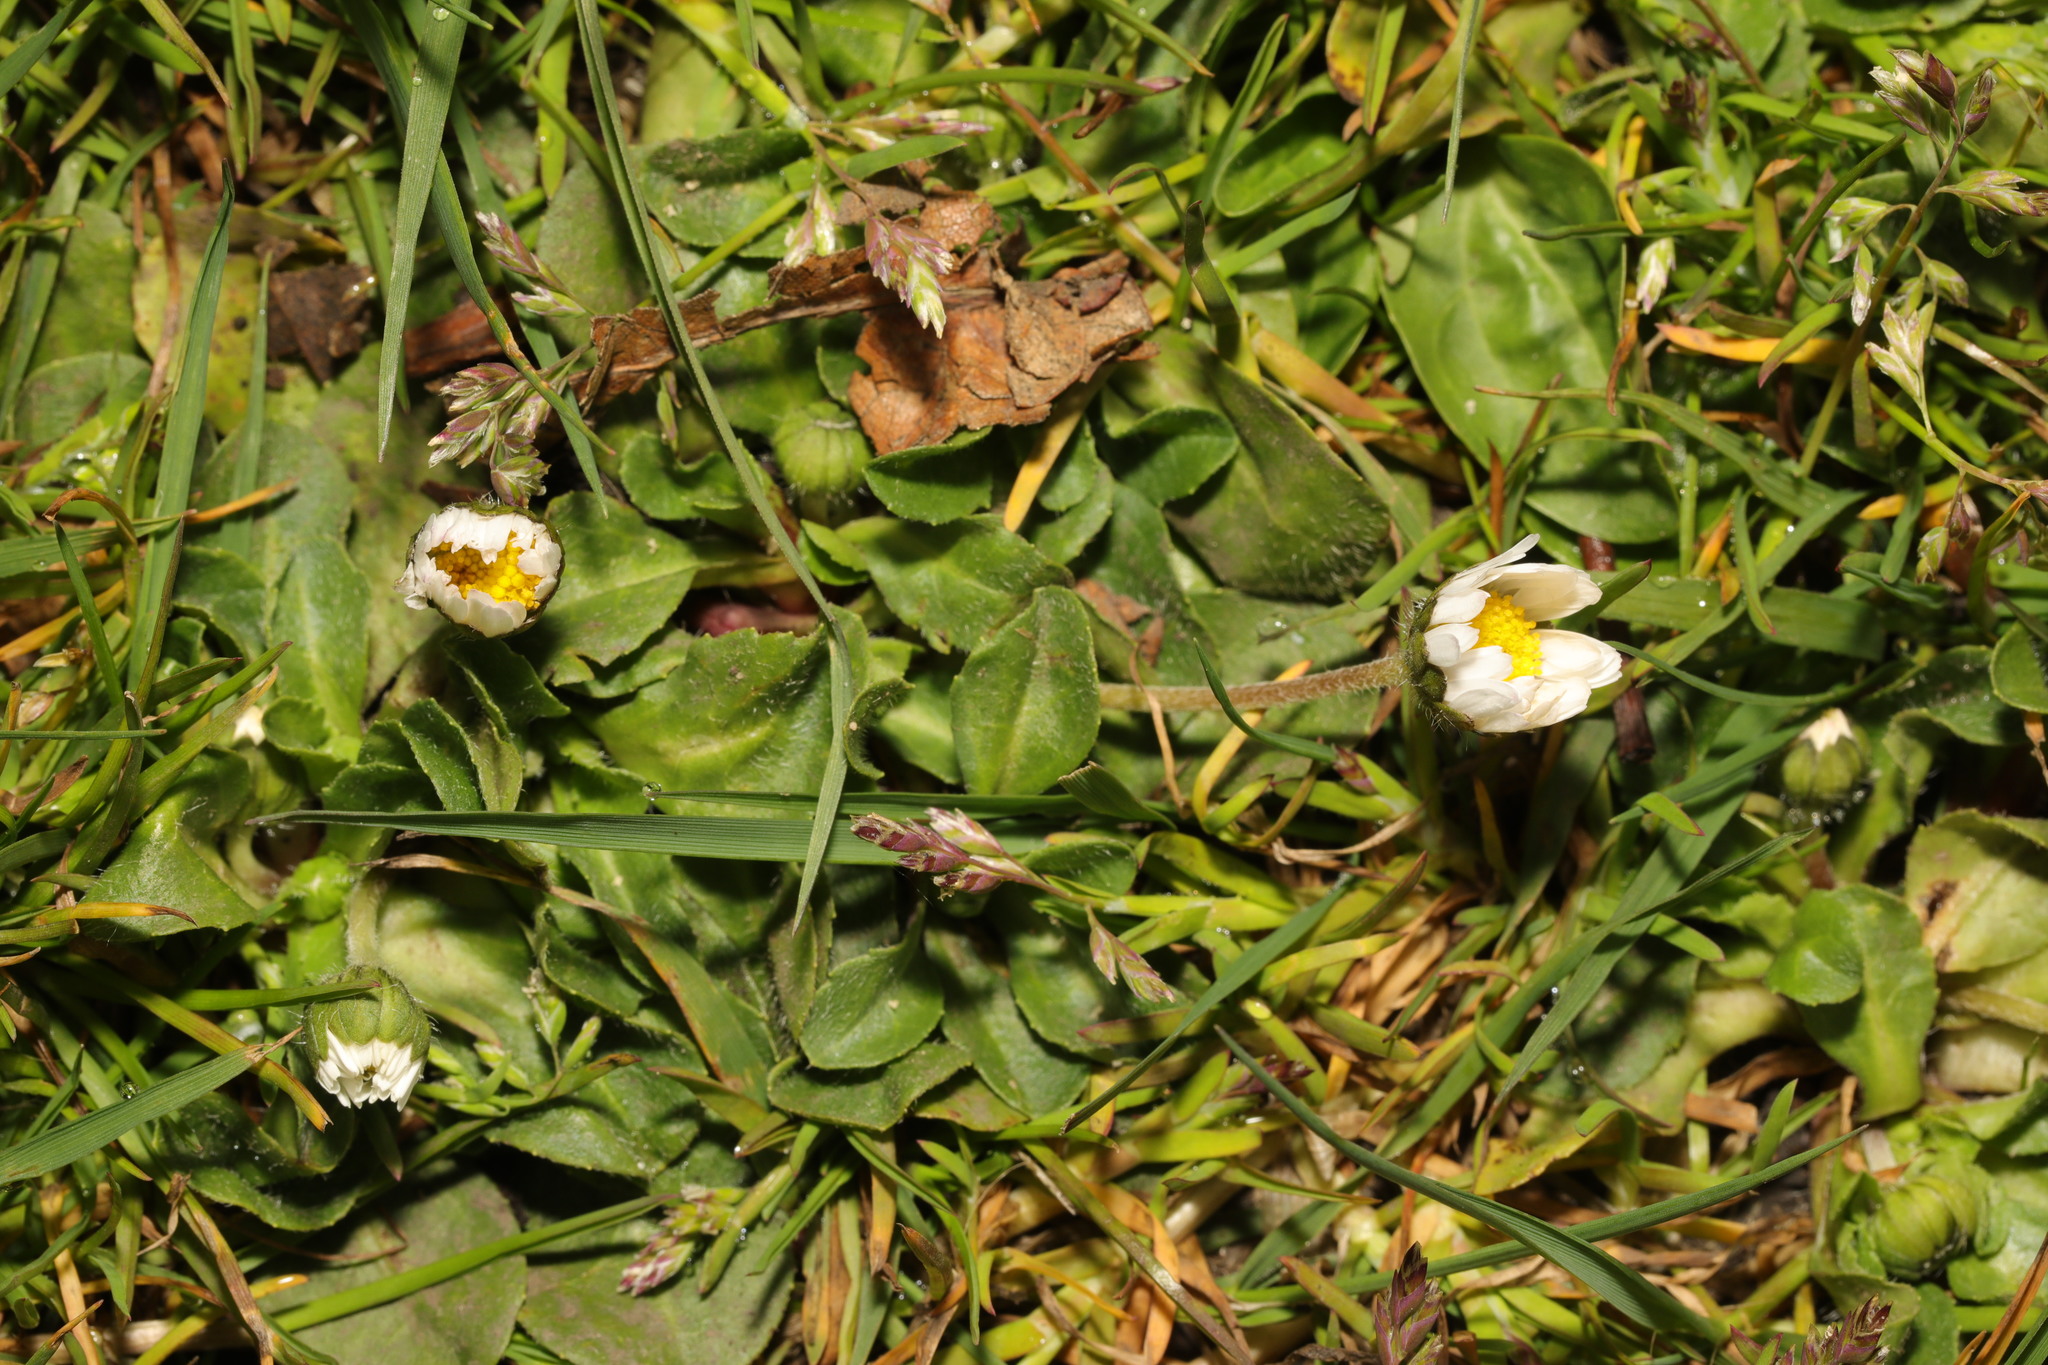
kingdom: Plantae
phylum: Tracheophyta
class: Magnoliopsida
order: Asterales
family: Asteraceae
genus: Bellis
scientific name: Bellis perennis
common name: Lawndaisy
